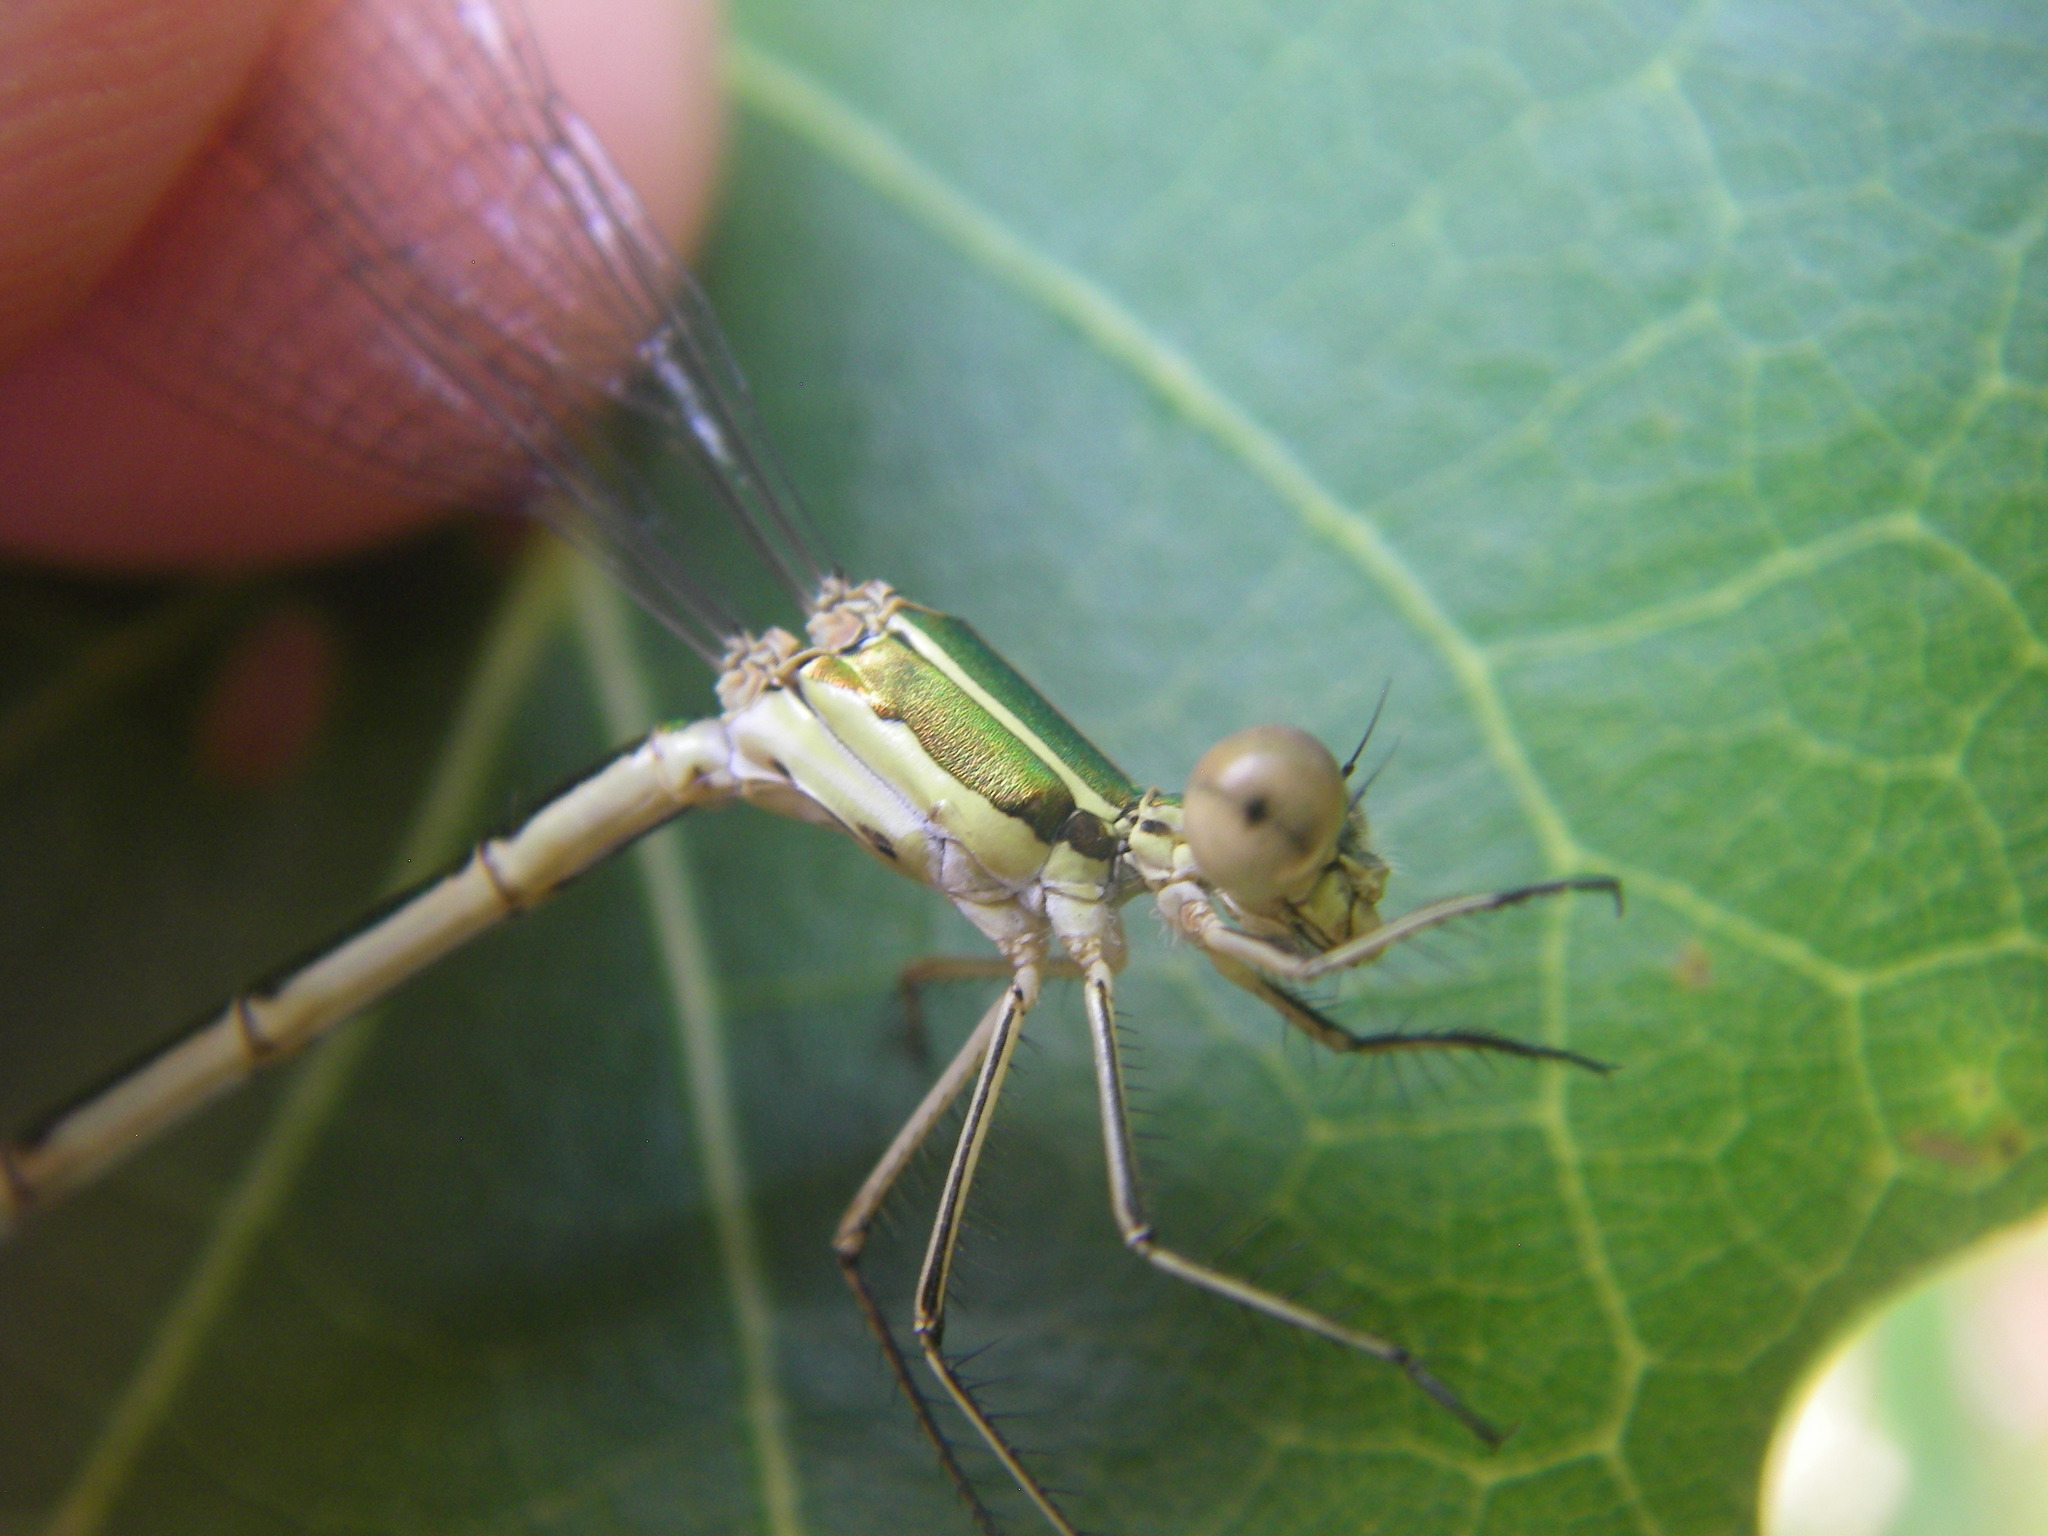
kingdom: Animalia
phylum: Arthropoda
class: Insecta
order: Odonata
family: Lestidae
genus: Lestes
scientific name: Lestes virens
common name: Small emerald spreadwing
